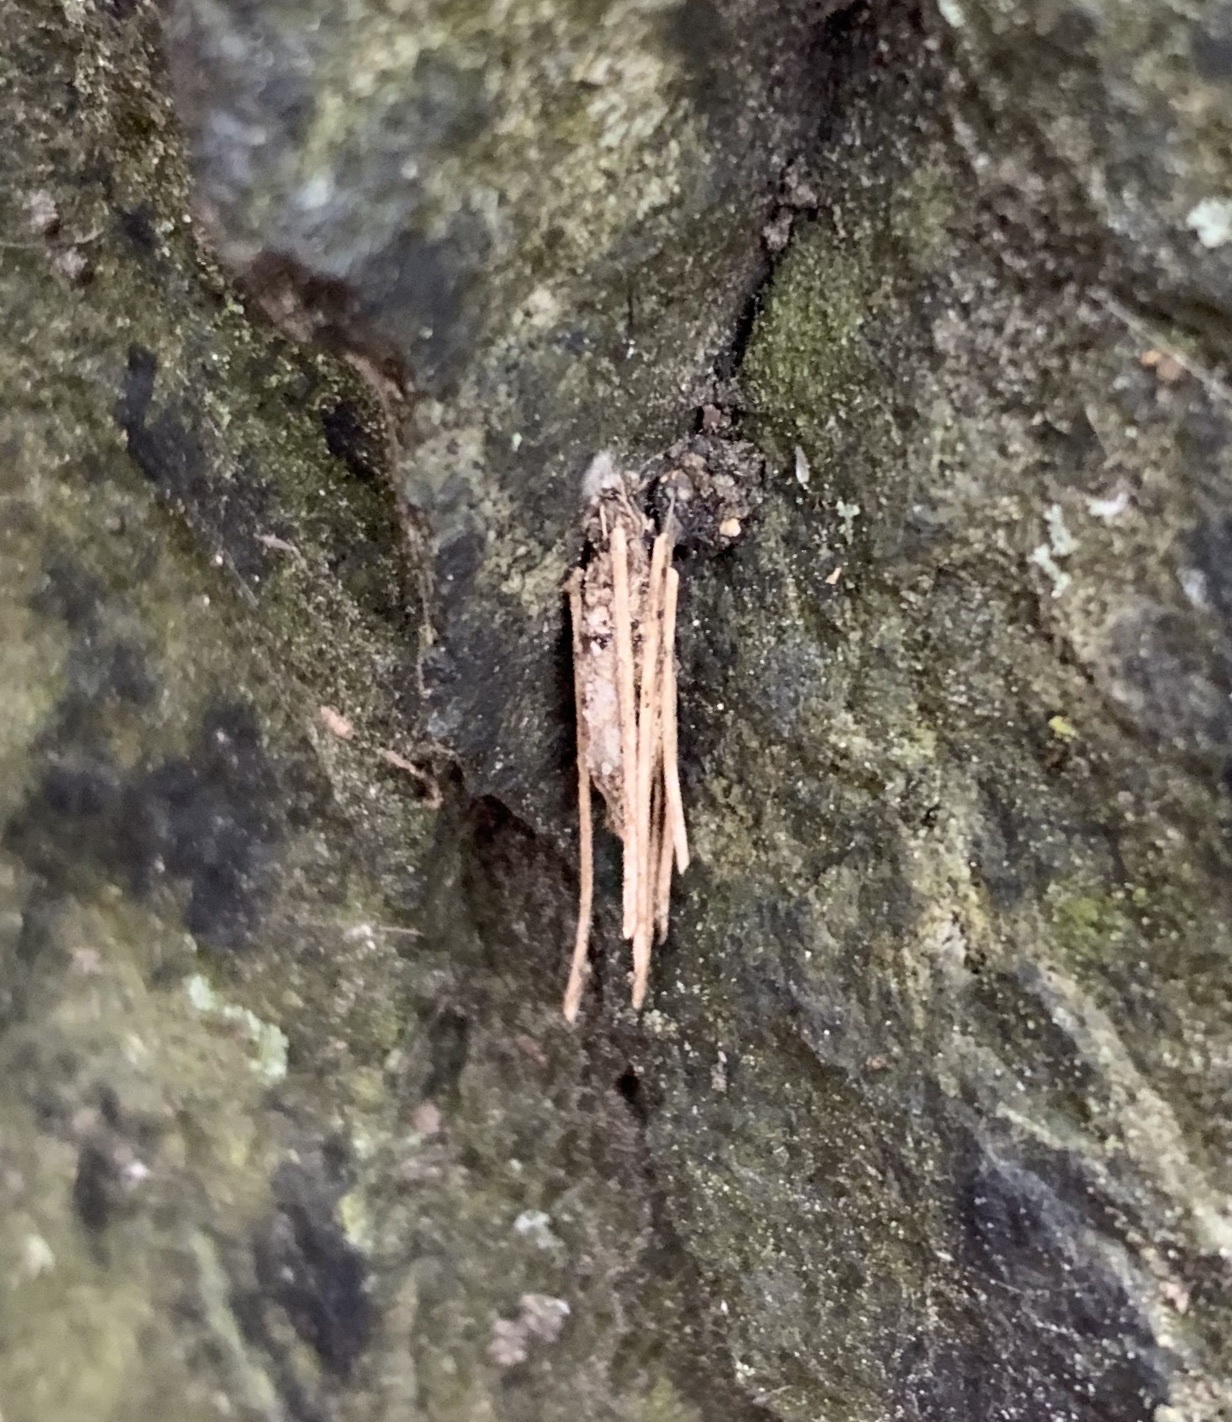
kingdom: Animalia
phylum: Arthropoda
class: Insecta
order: Lepidoptera
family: Psychidae
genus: Psyche
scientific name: Psyche casta
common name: Common sweep
